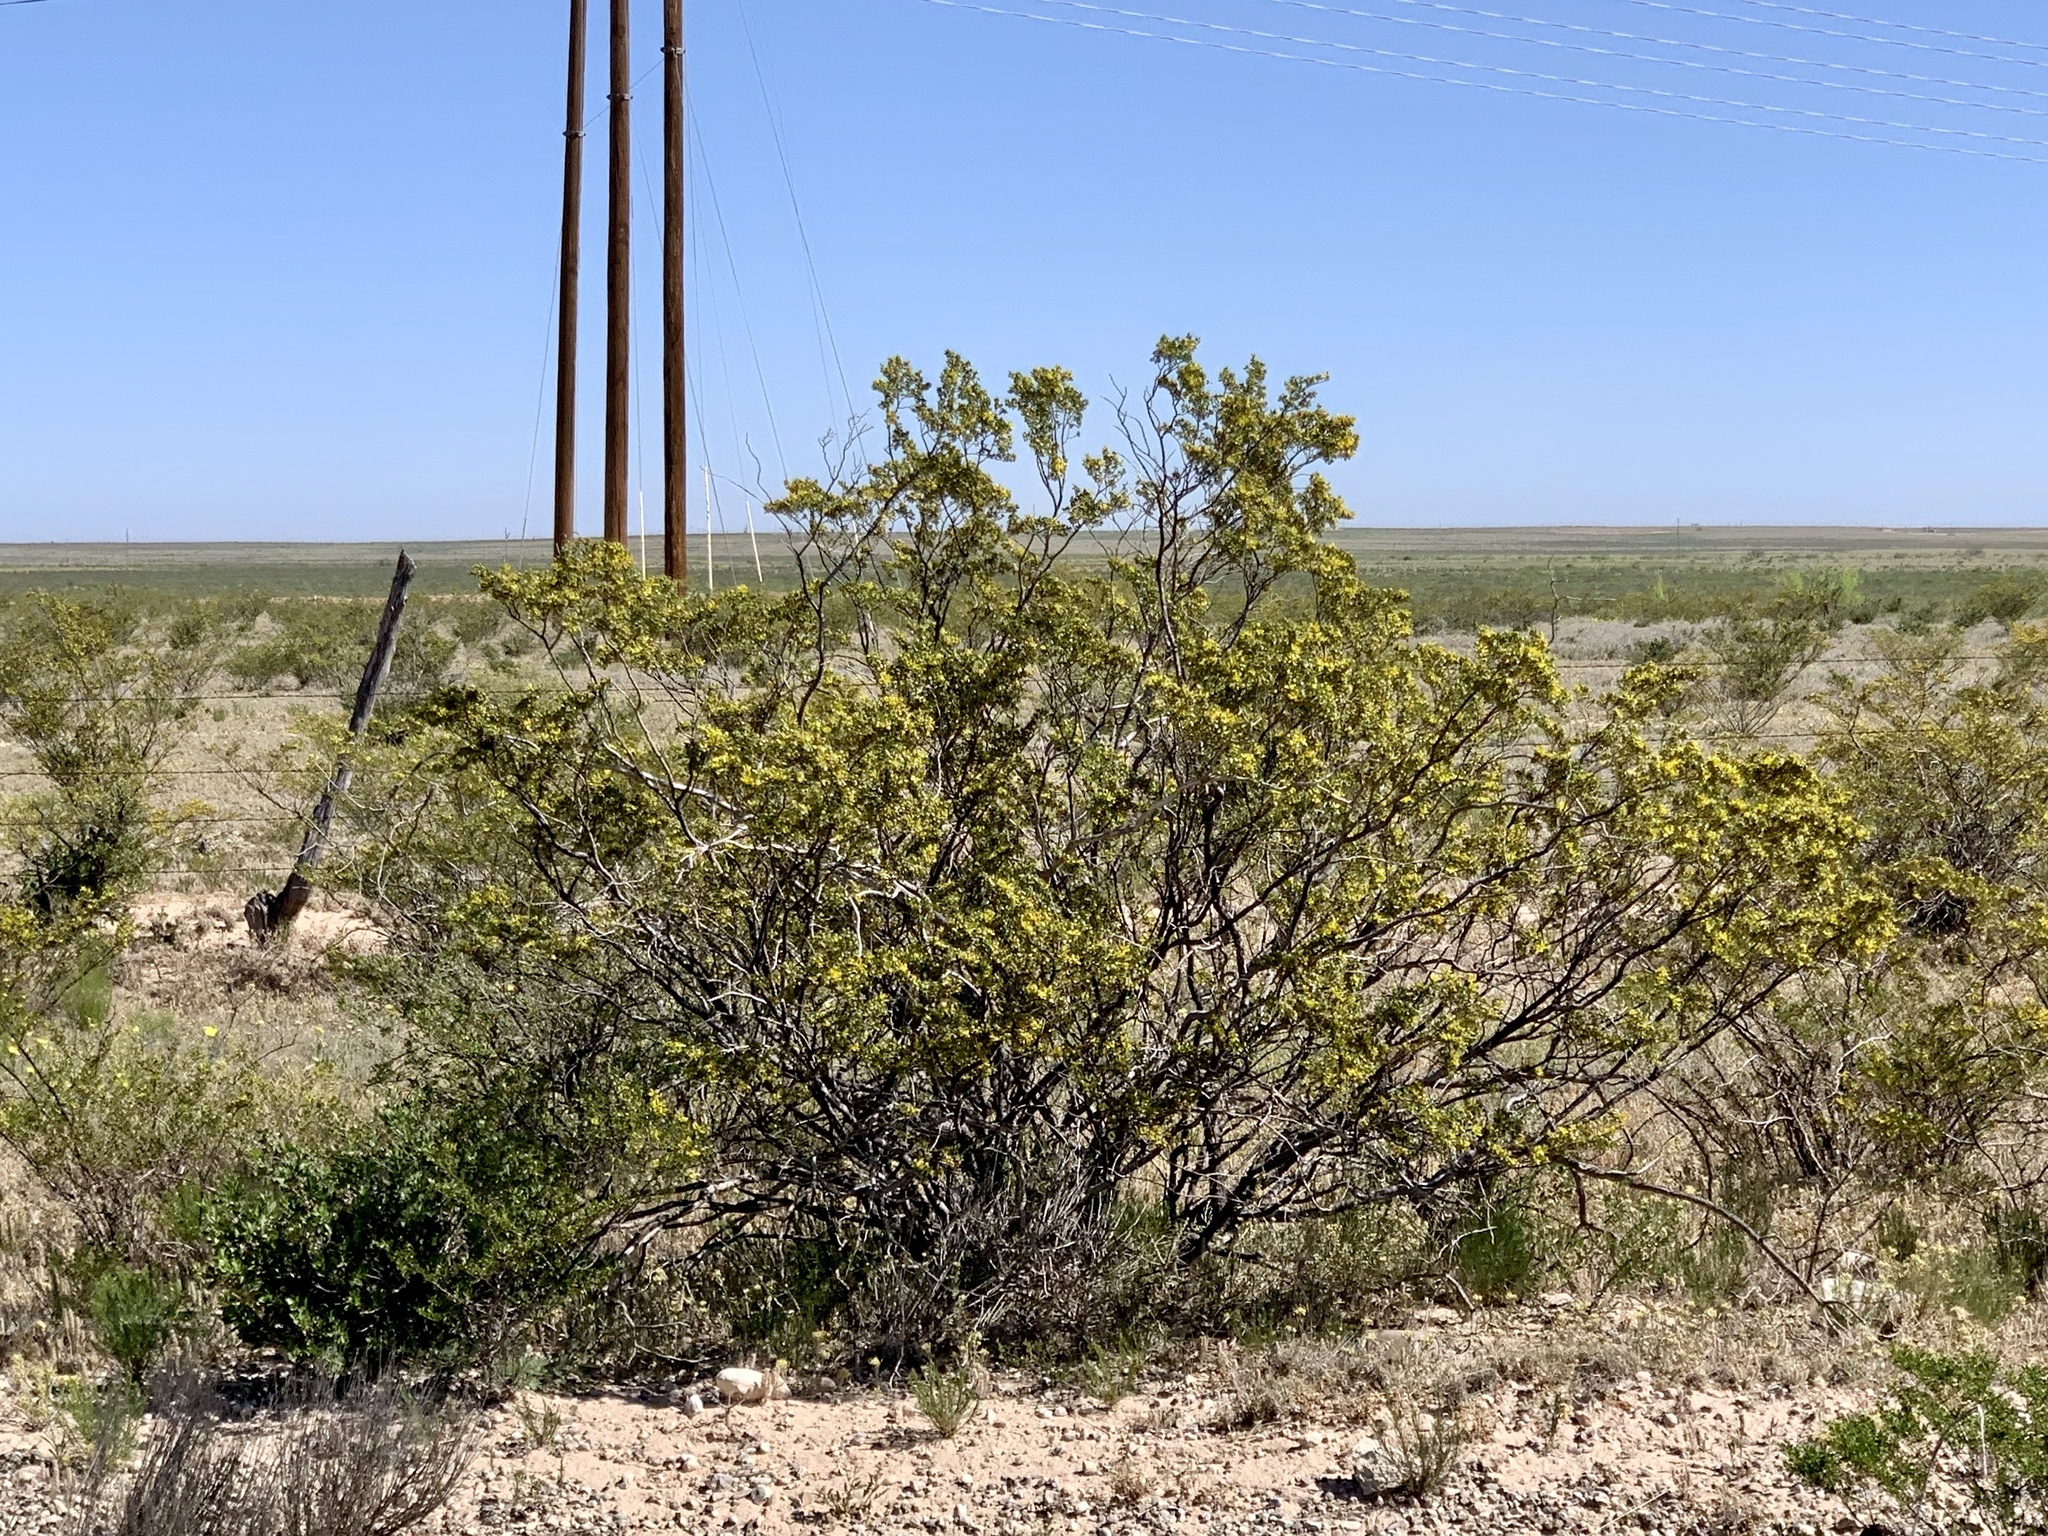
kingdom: Plantae
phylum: Tracheophyta
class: Magnoliopsida
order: Zygophyllales
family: Zygophyllaceae
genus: Larrea
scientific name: Larrea tridentata
